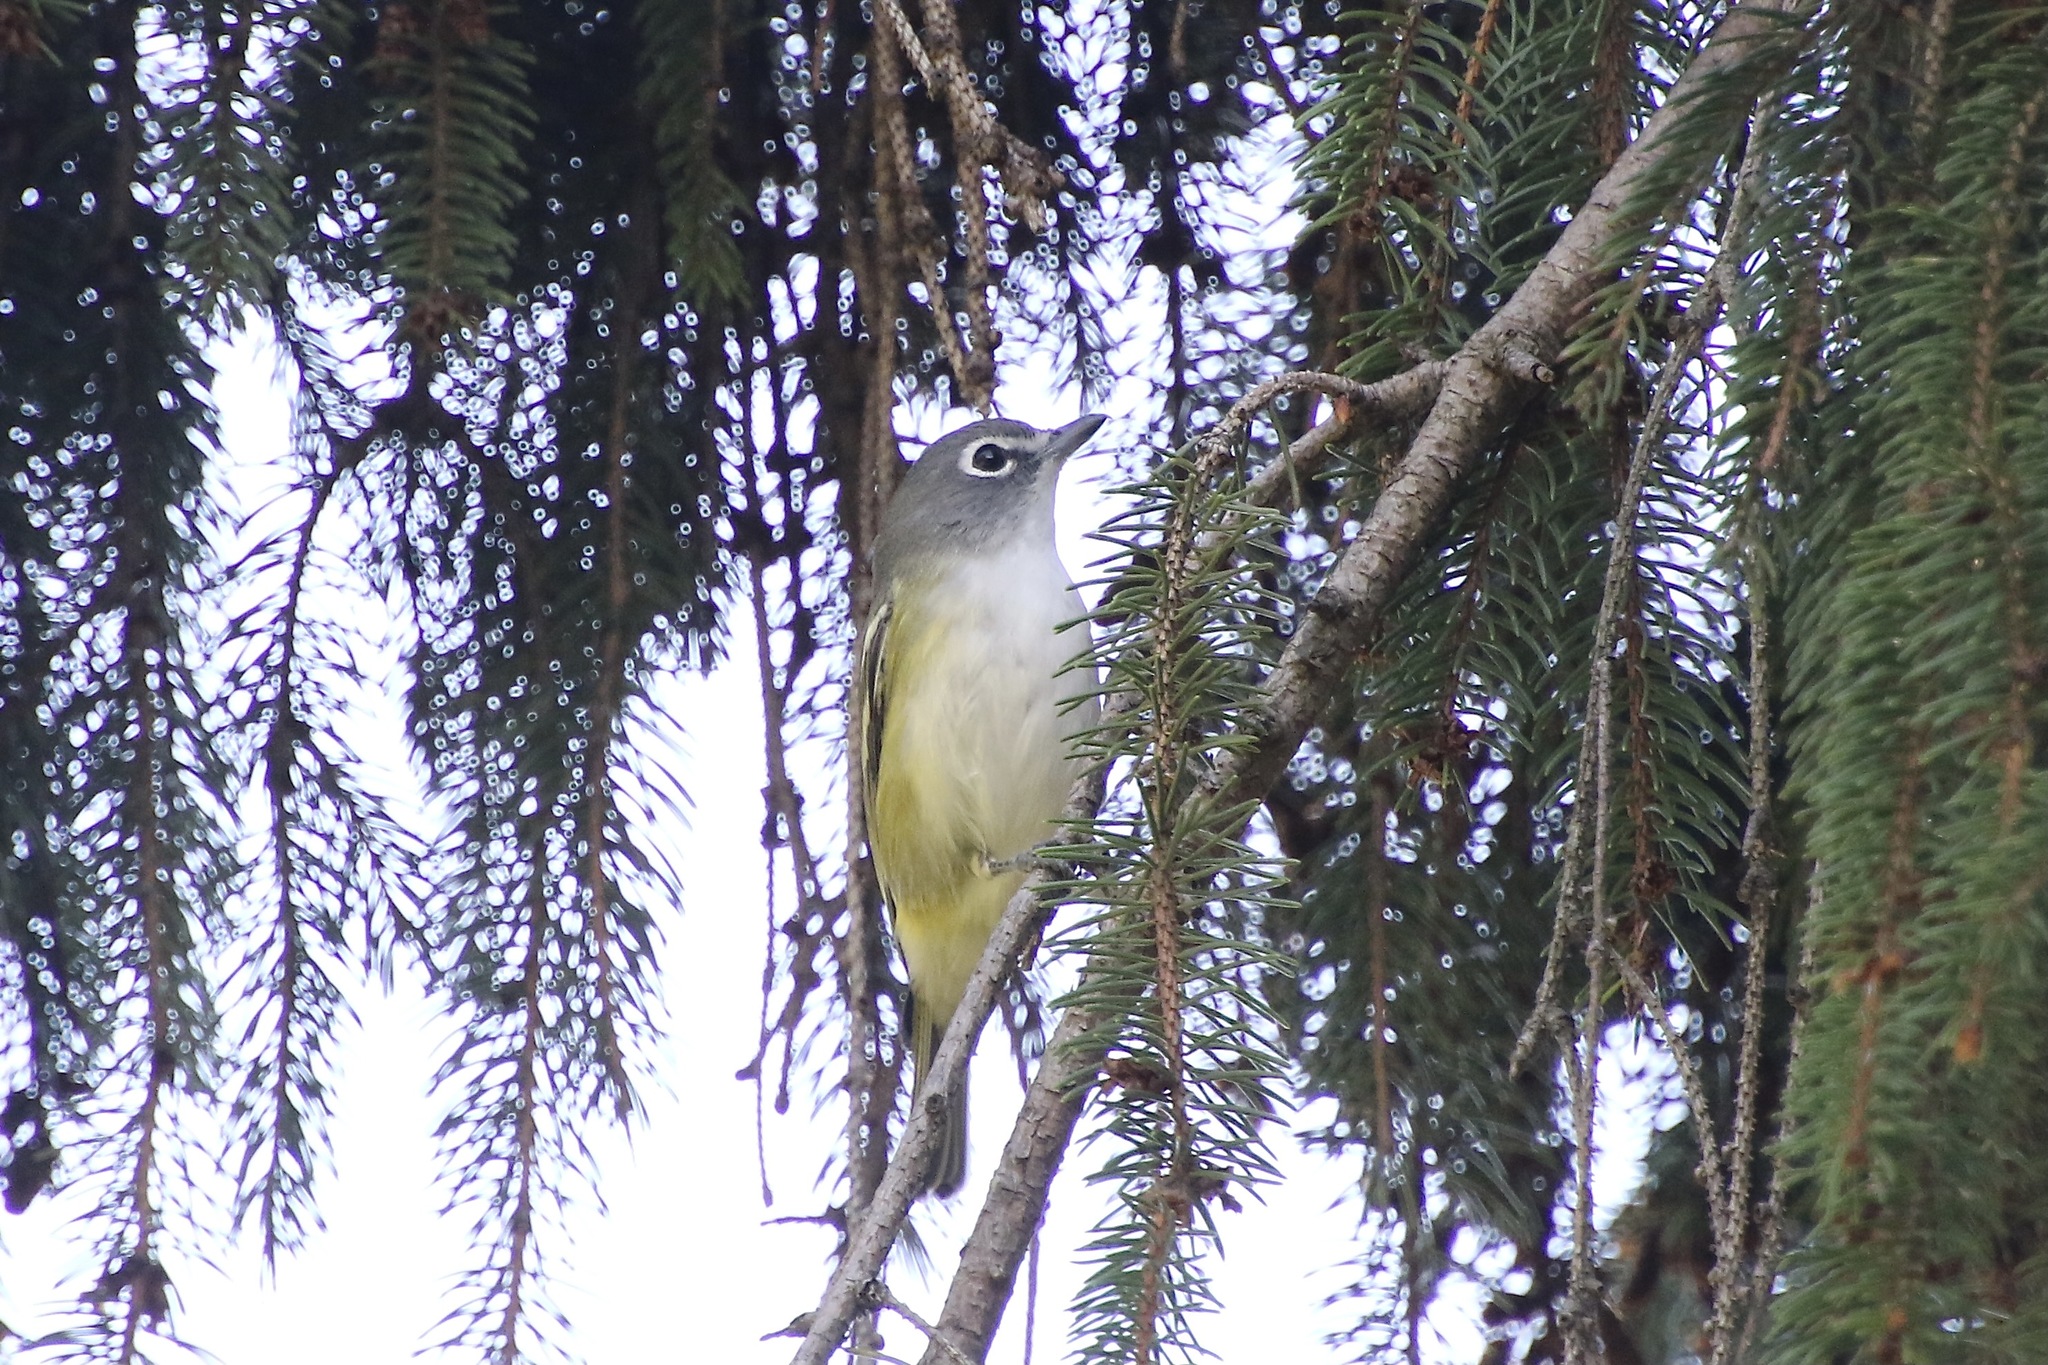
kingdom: Animalia
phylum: Chordata
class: Aves
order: Passeriformes
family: Vireonidae
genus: Vireo
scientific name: Vireo solitarius
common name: Blue-headed vireo
